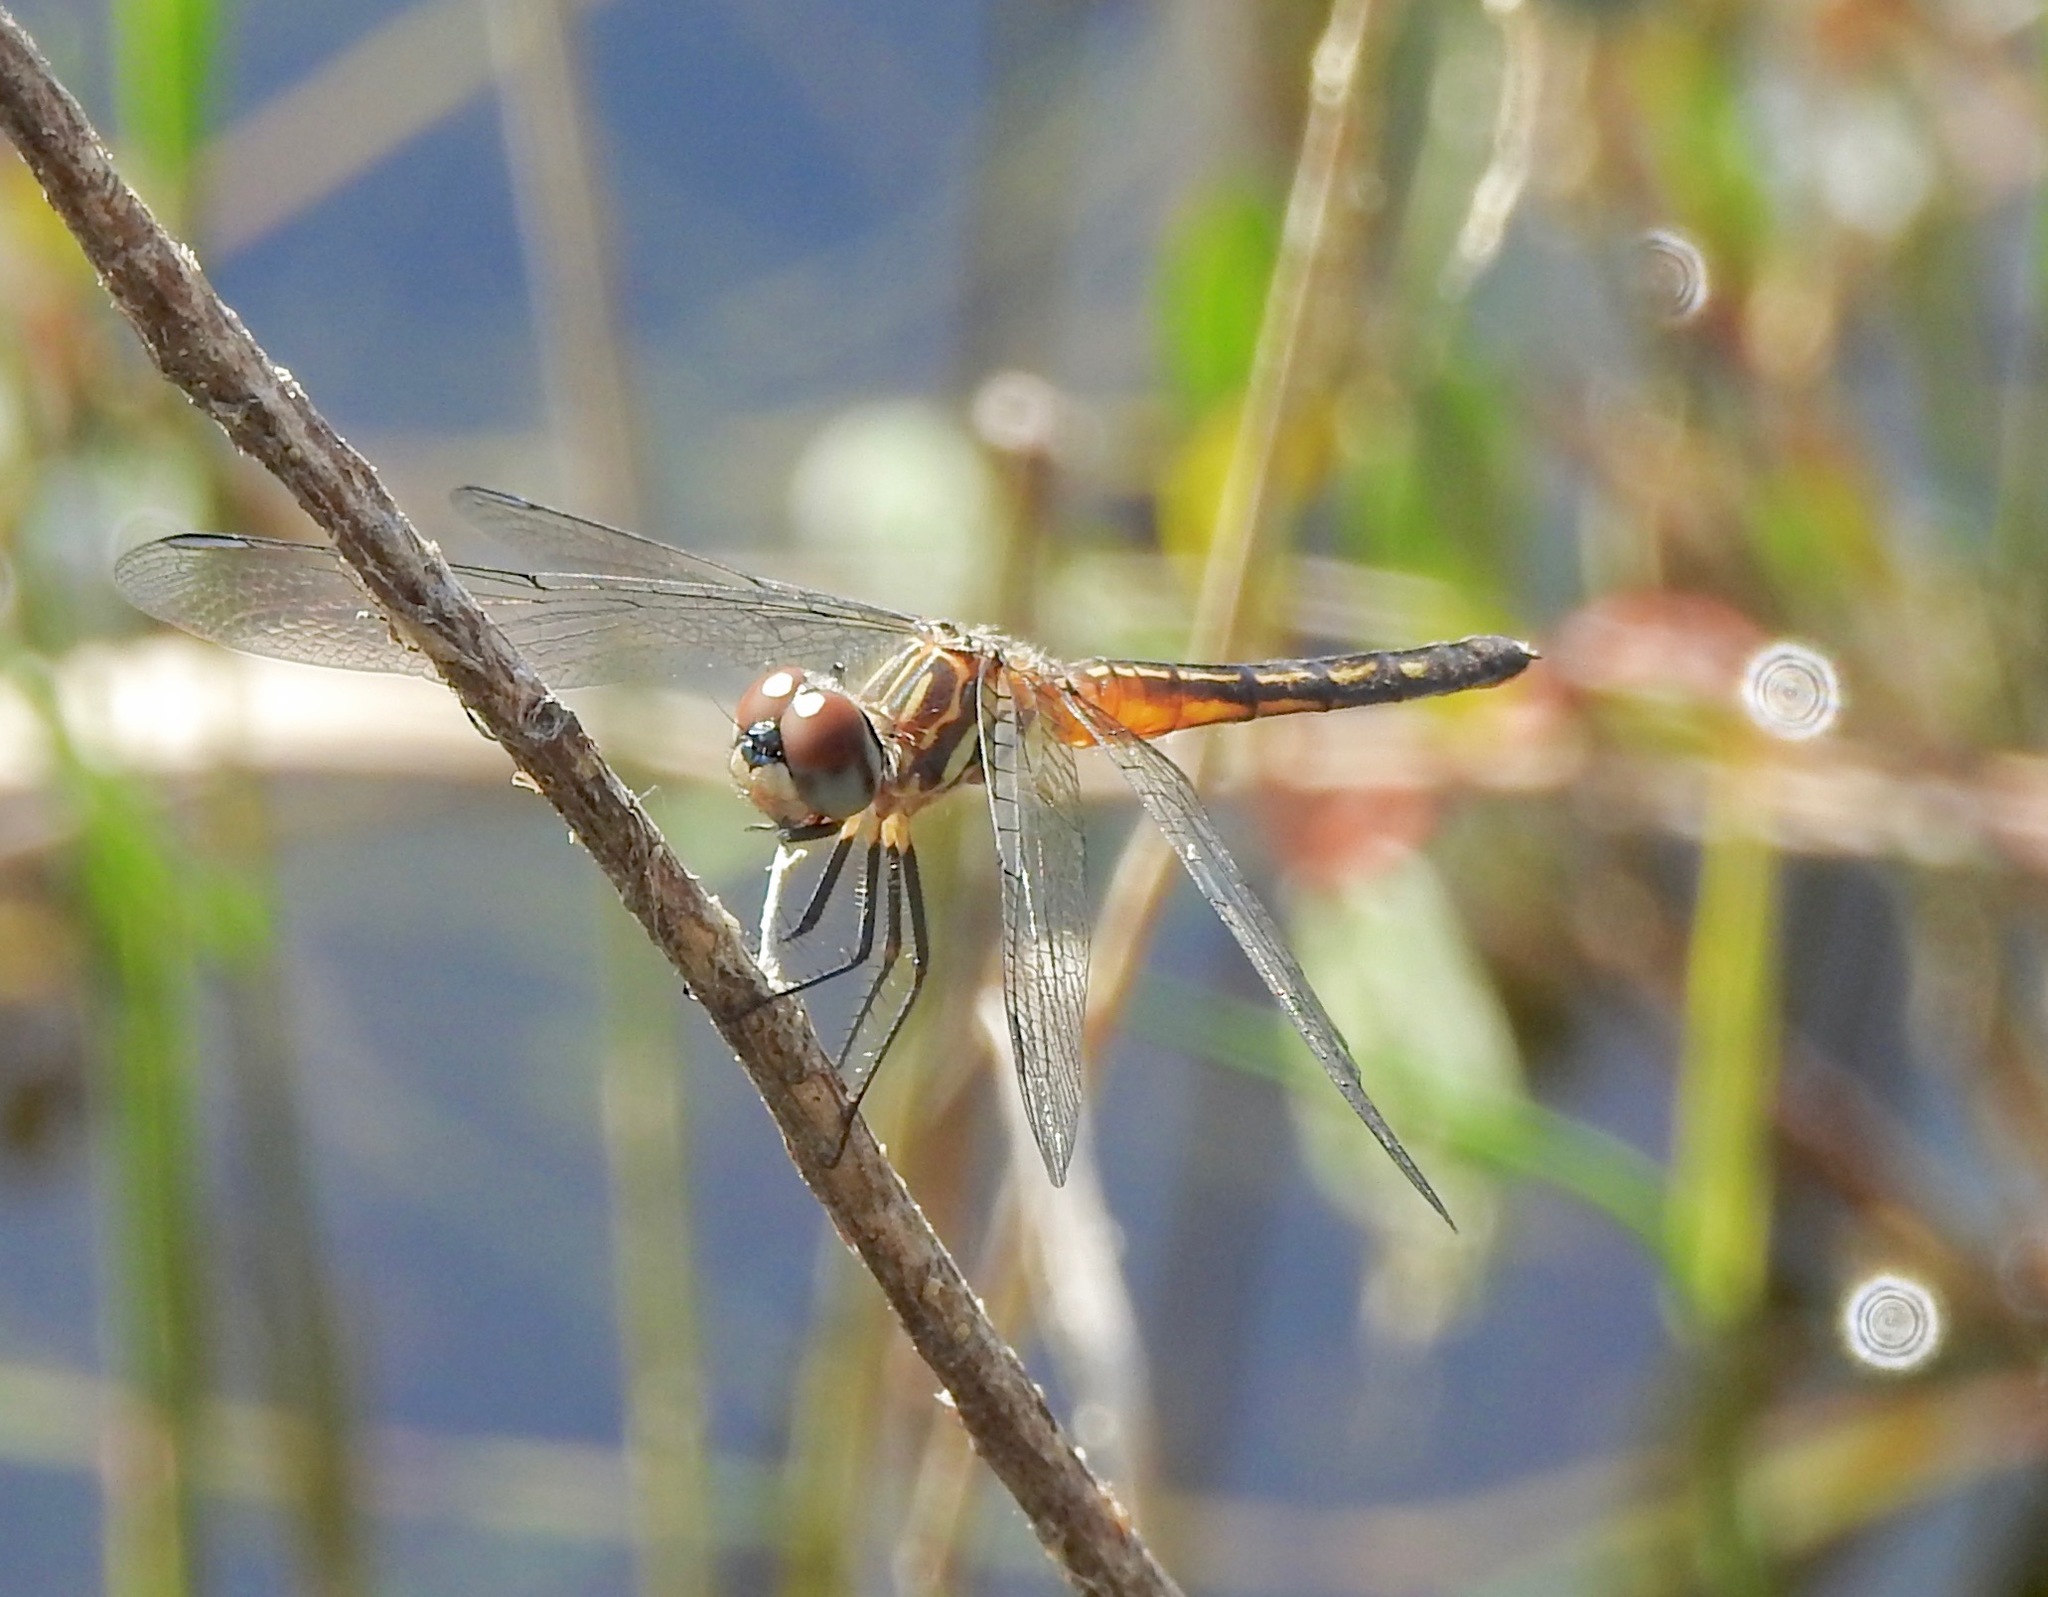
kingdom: Animalia
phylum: Arthropoda
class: Insecta
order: Odonata
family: Libellulidae
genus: Pachydiplax
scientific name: Pachydiplax longipennis
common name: Blue dasher
